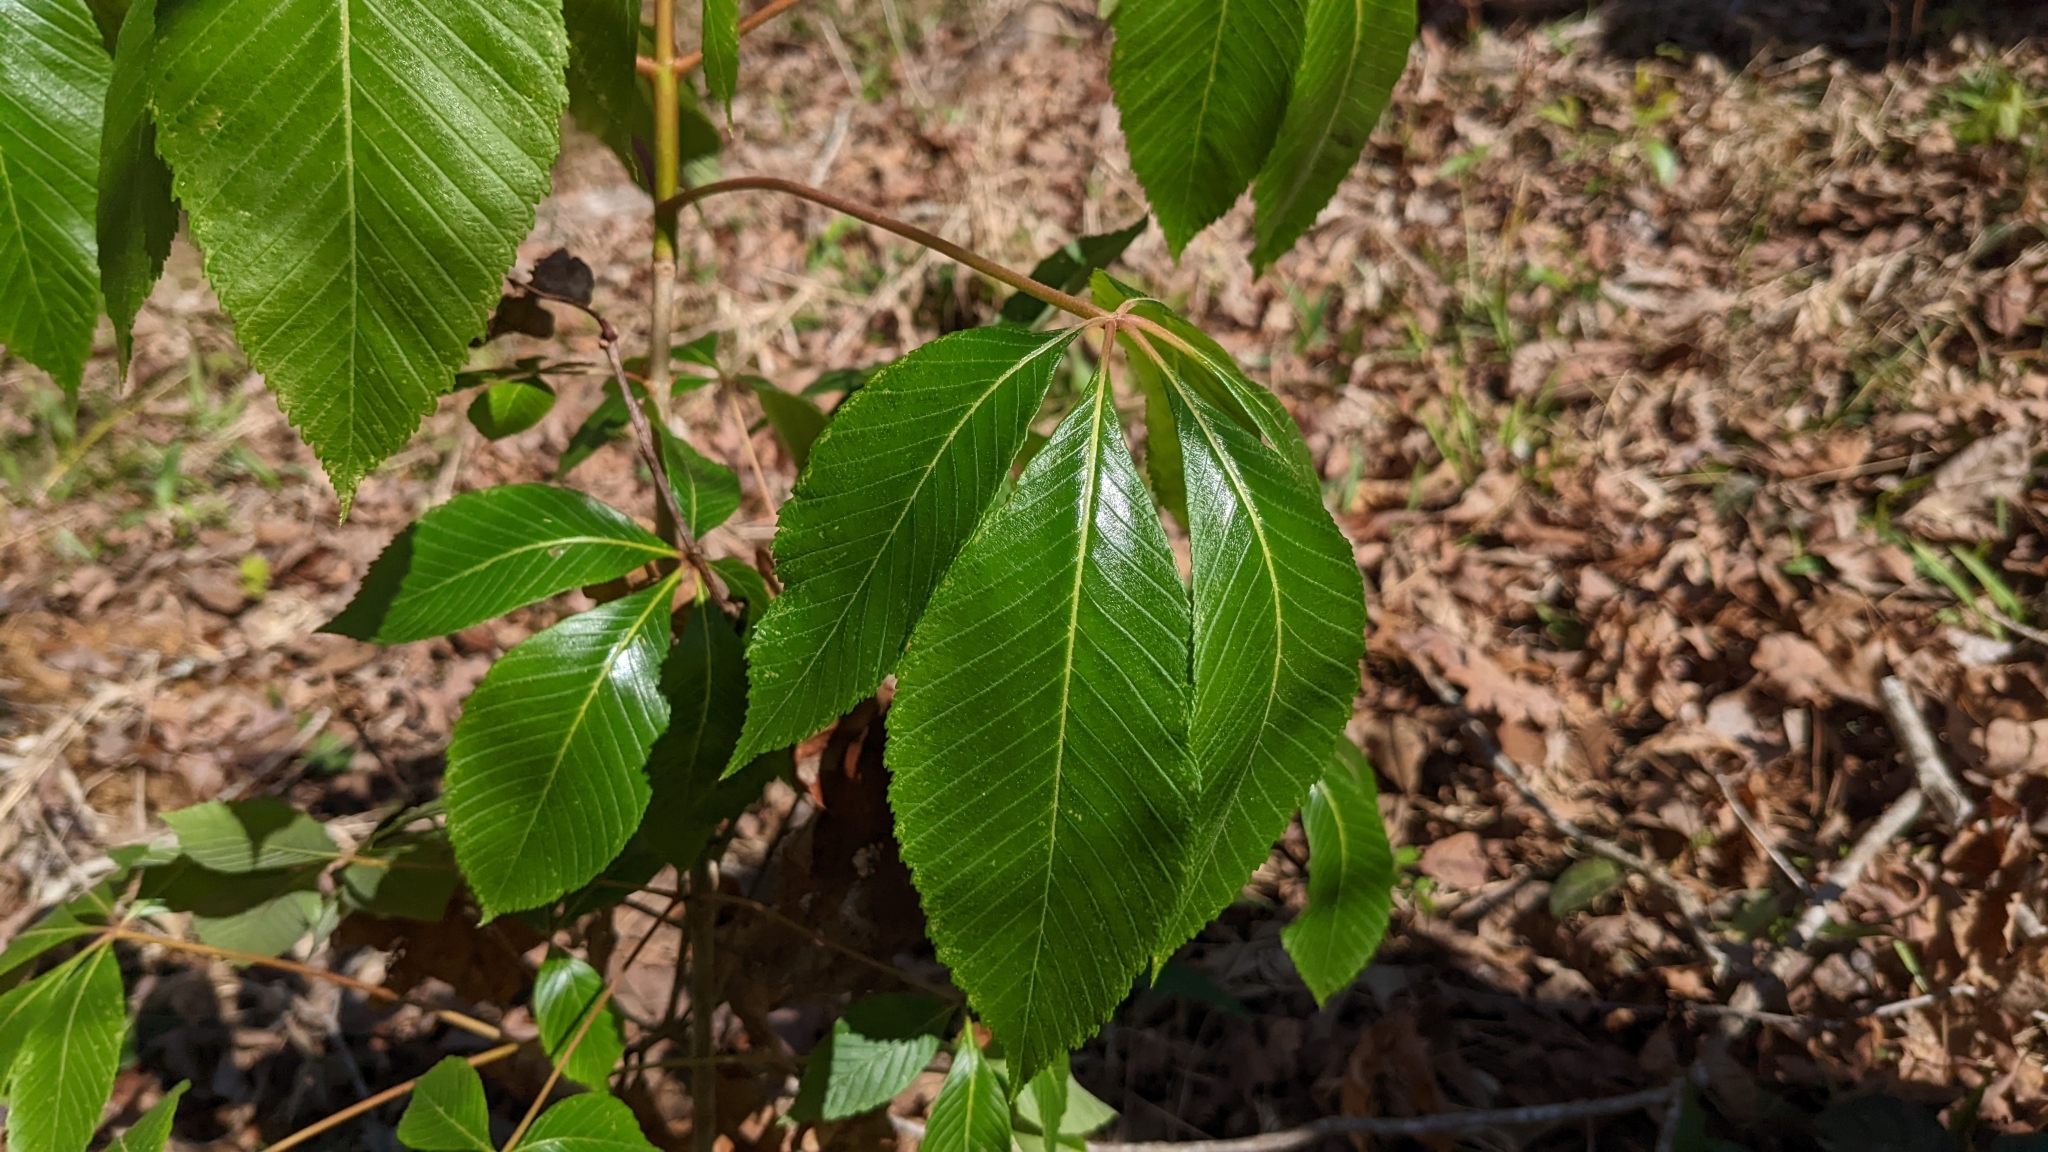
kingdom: Plantae
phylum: Tracheophyta
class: Magnoliopsida
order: Sapindales
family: Sapindaceae
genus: Aesculus
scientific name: Aesculus pavia
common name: Red buckeye
